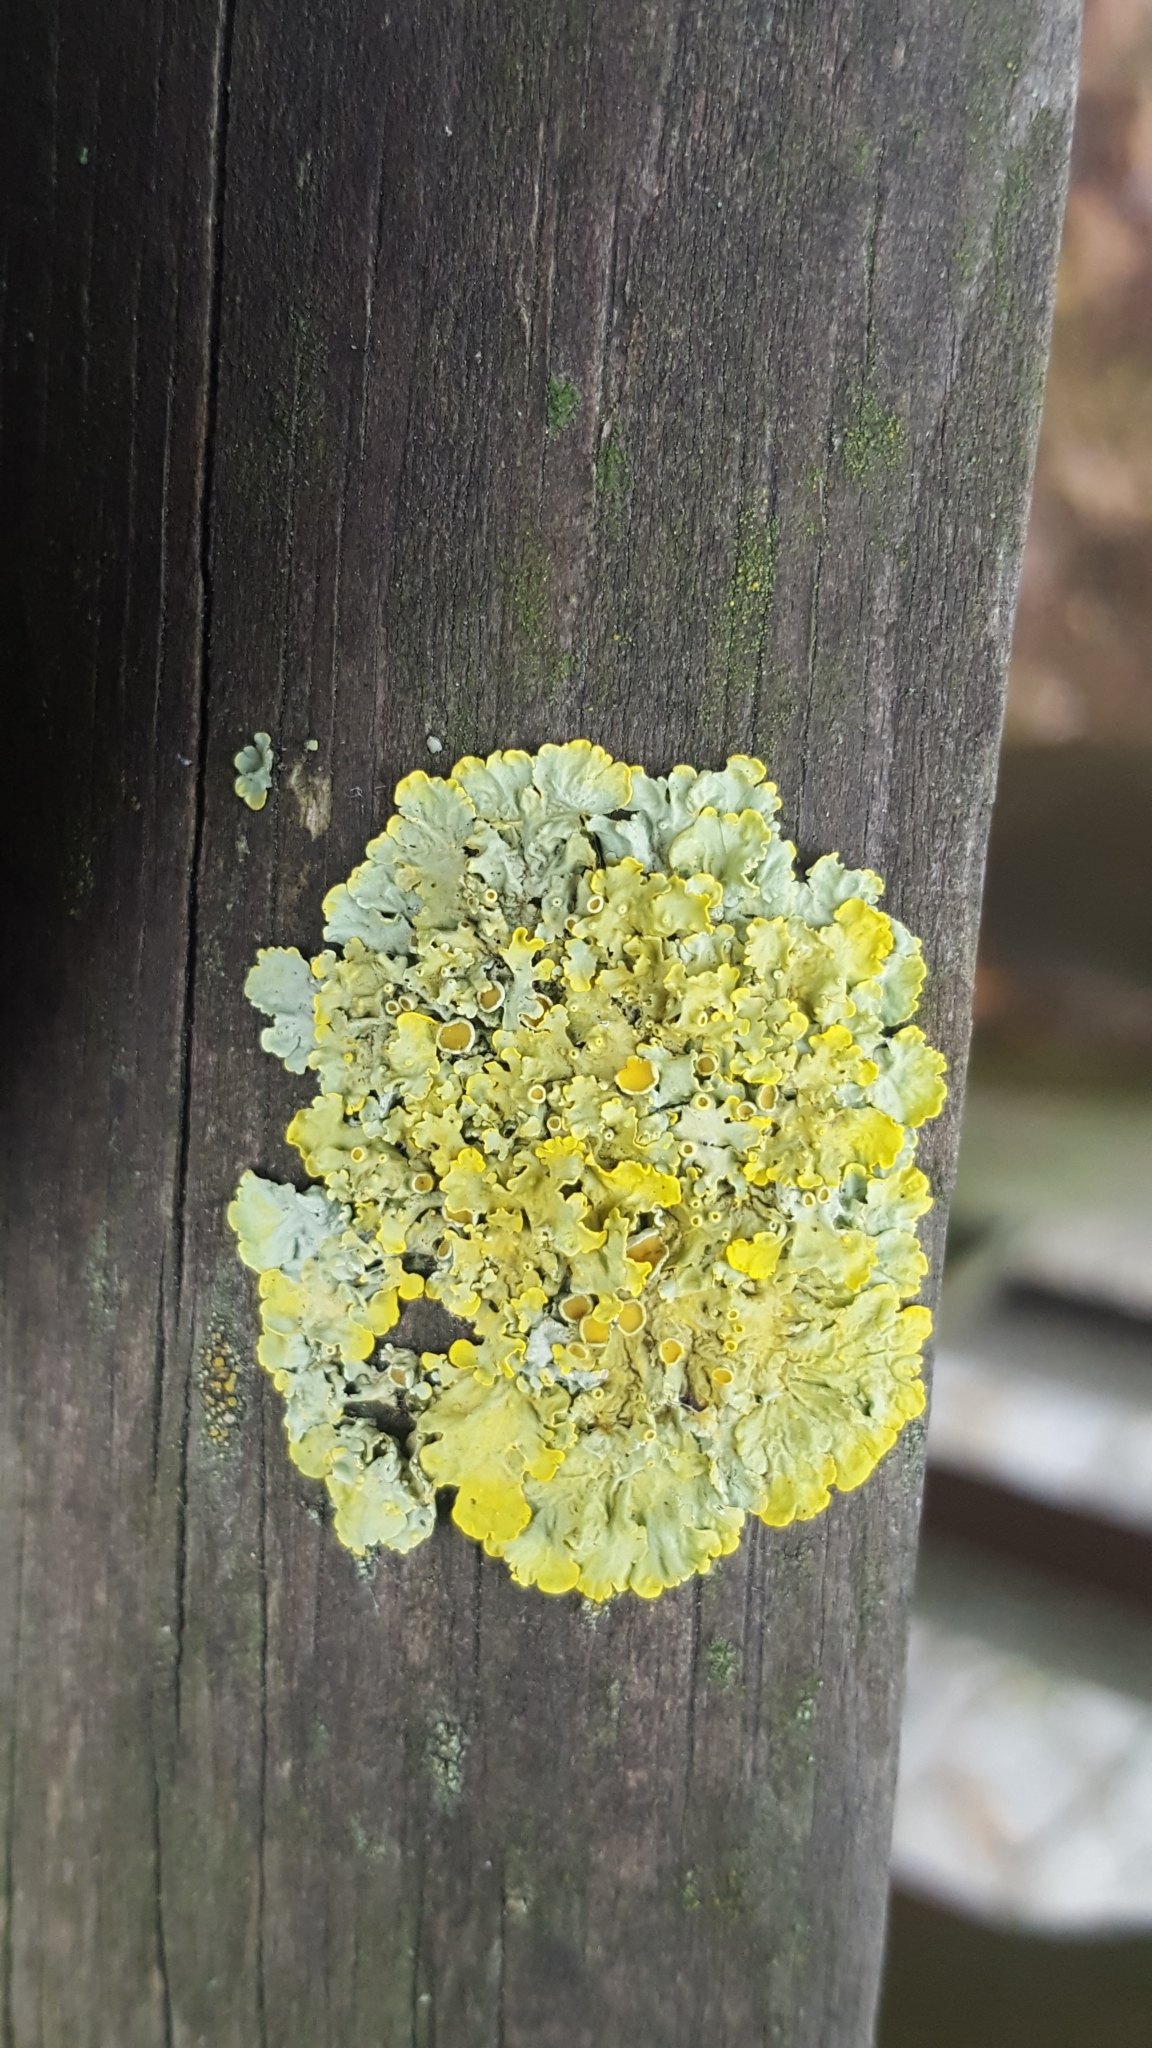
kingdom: Fungi
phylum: Ascomycota
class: Lecanoromycetes
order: Teloschistales
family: Teloschistaceae
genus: Xanthoria
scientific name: Xanthoria parietina
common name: Common orange lichen
